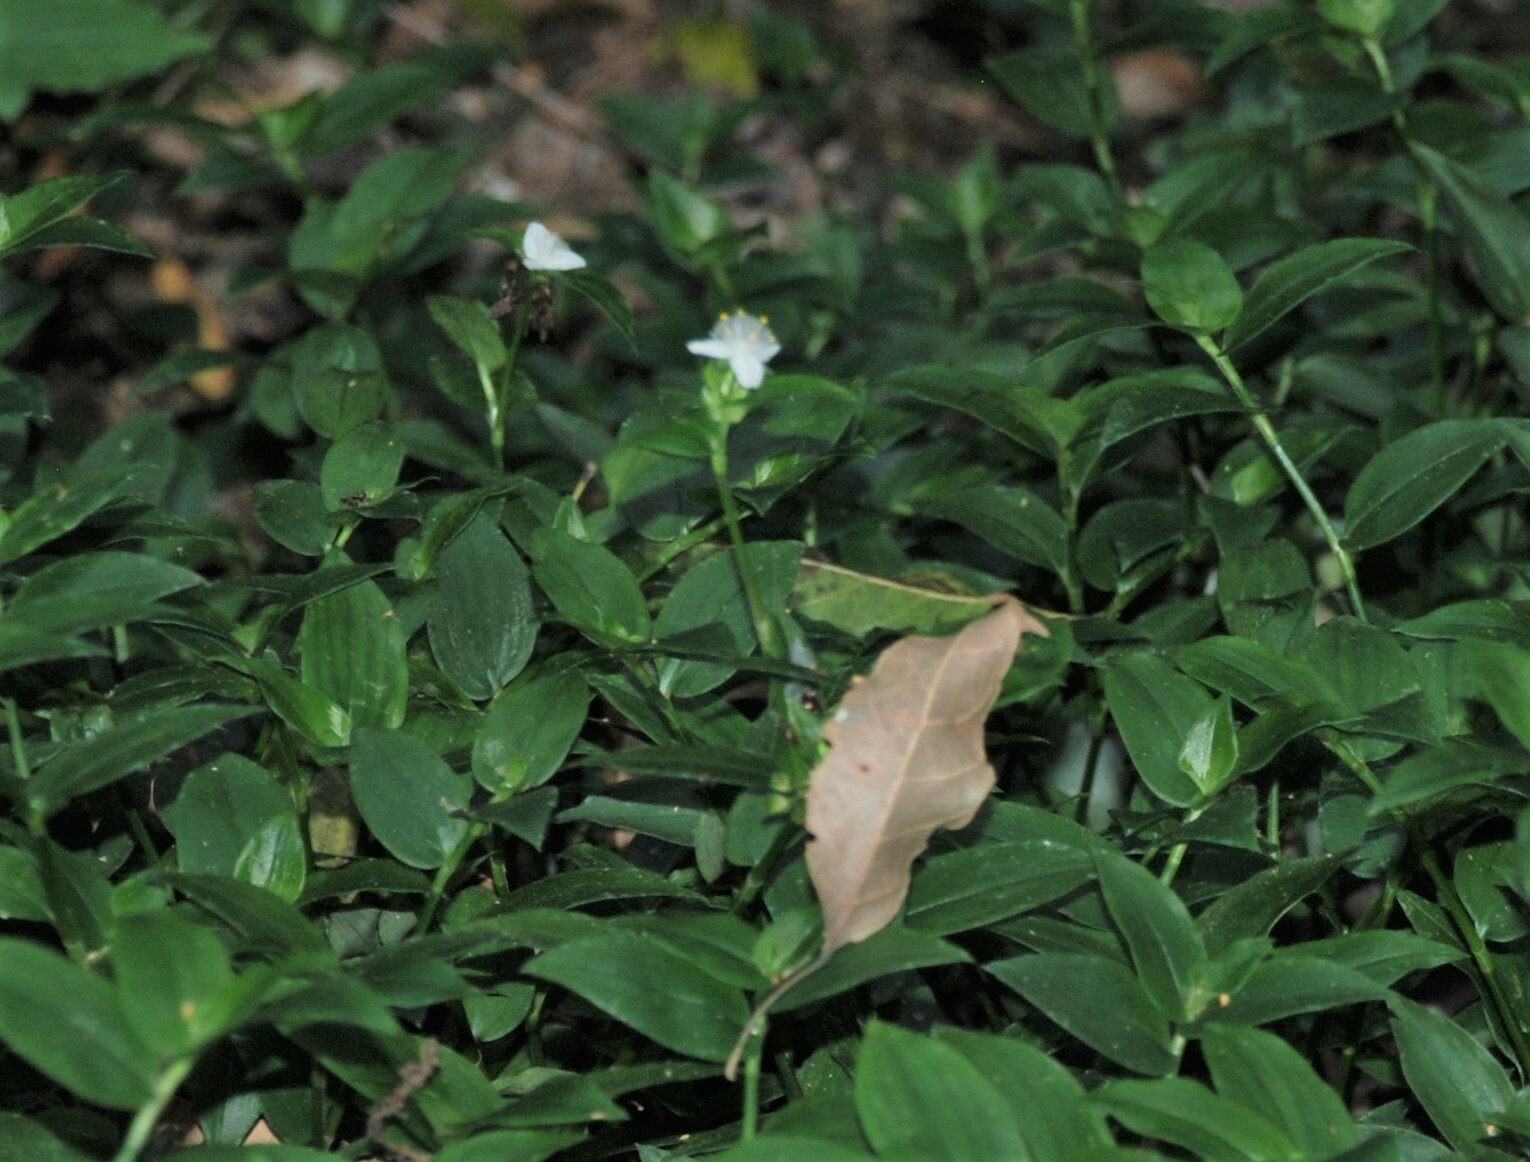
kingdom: Plantae
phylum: Tracheophyta
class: Liliopsida
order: Commelinales
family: Commelinaceae
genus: Tradescantia
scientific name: Tradescantia fluminensis
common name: Wandering-jew
